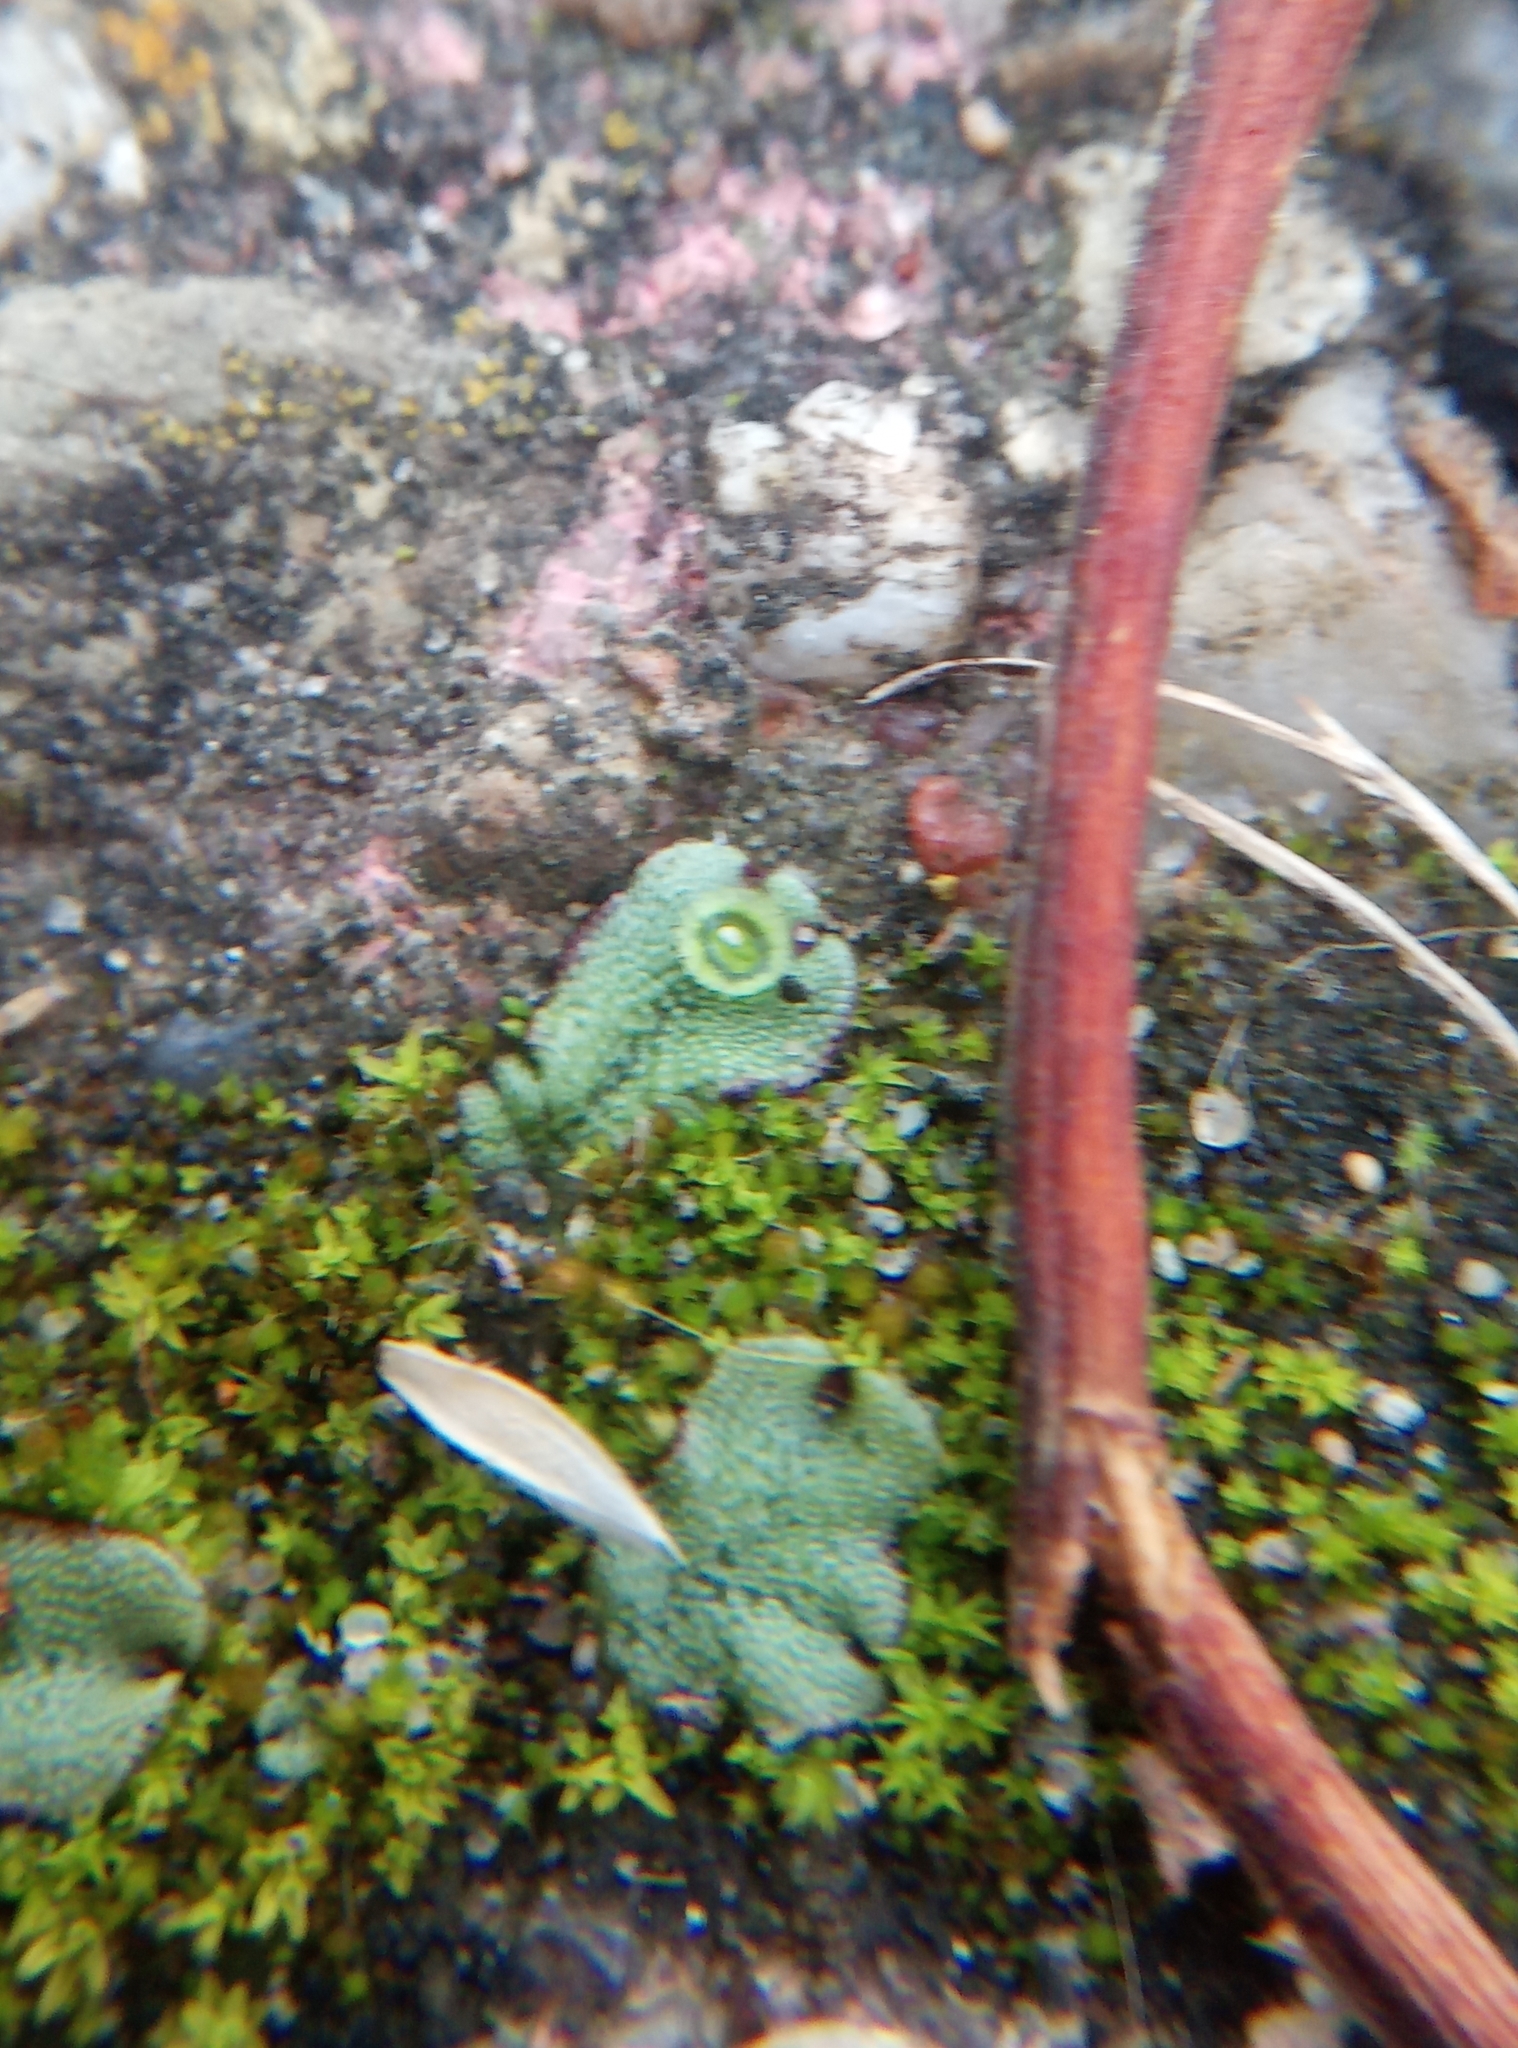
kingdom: Plantae
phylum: Marchantiophyta
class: Marchantiopsida
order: Marchantiales
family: Marchantiaceae
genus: Marchantia
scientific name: Marchantia polymorpha
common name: Common liverwort
